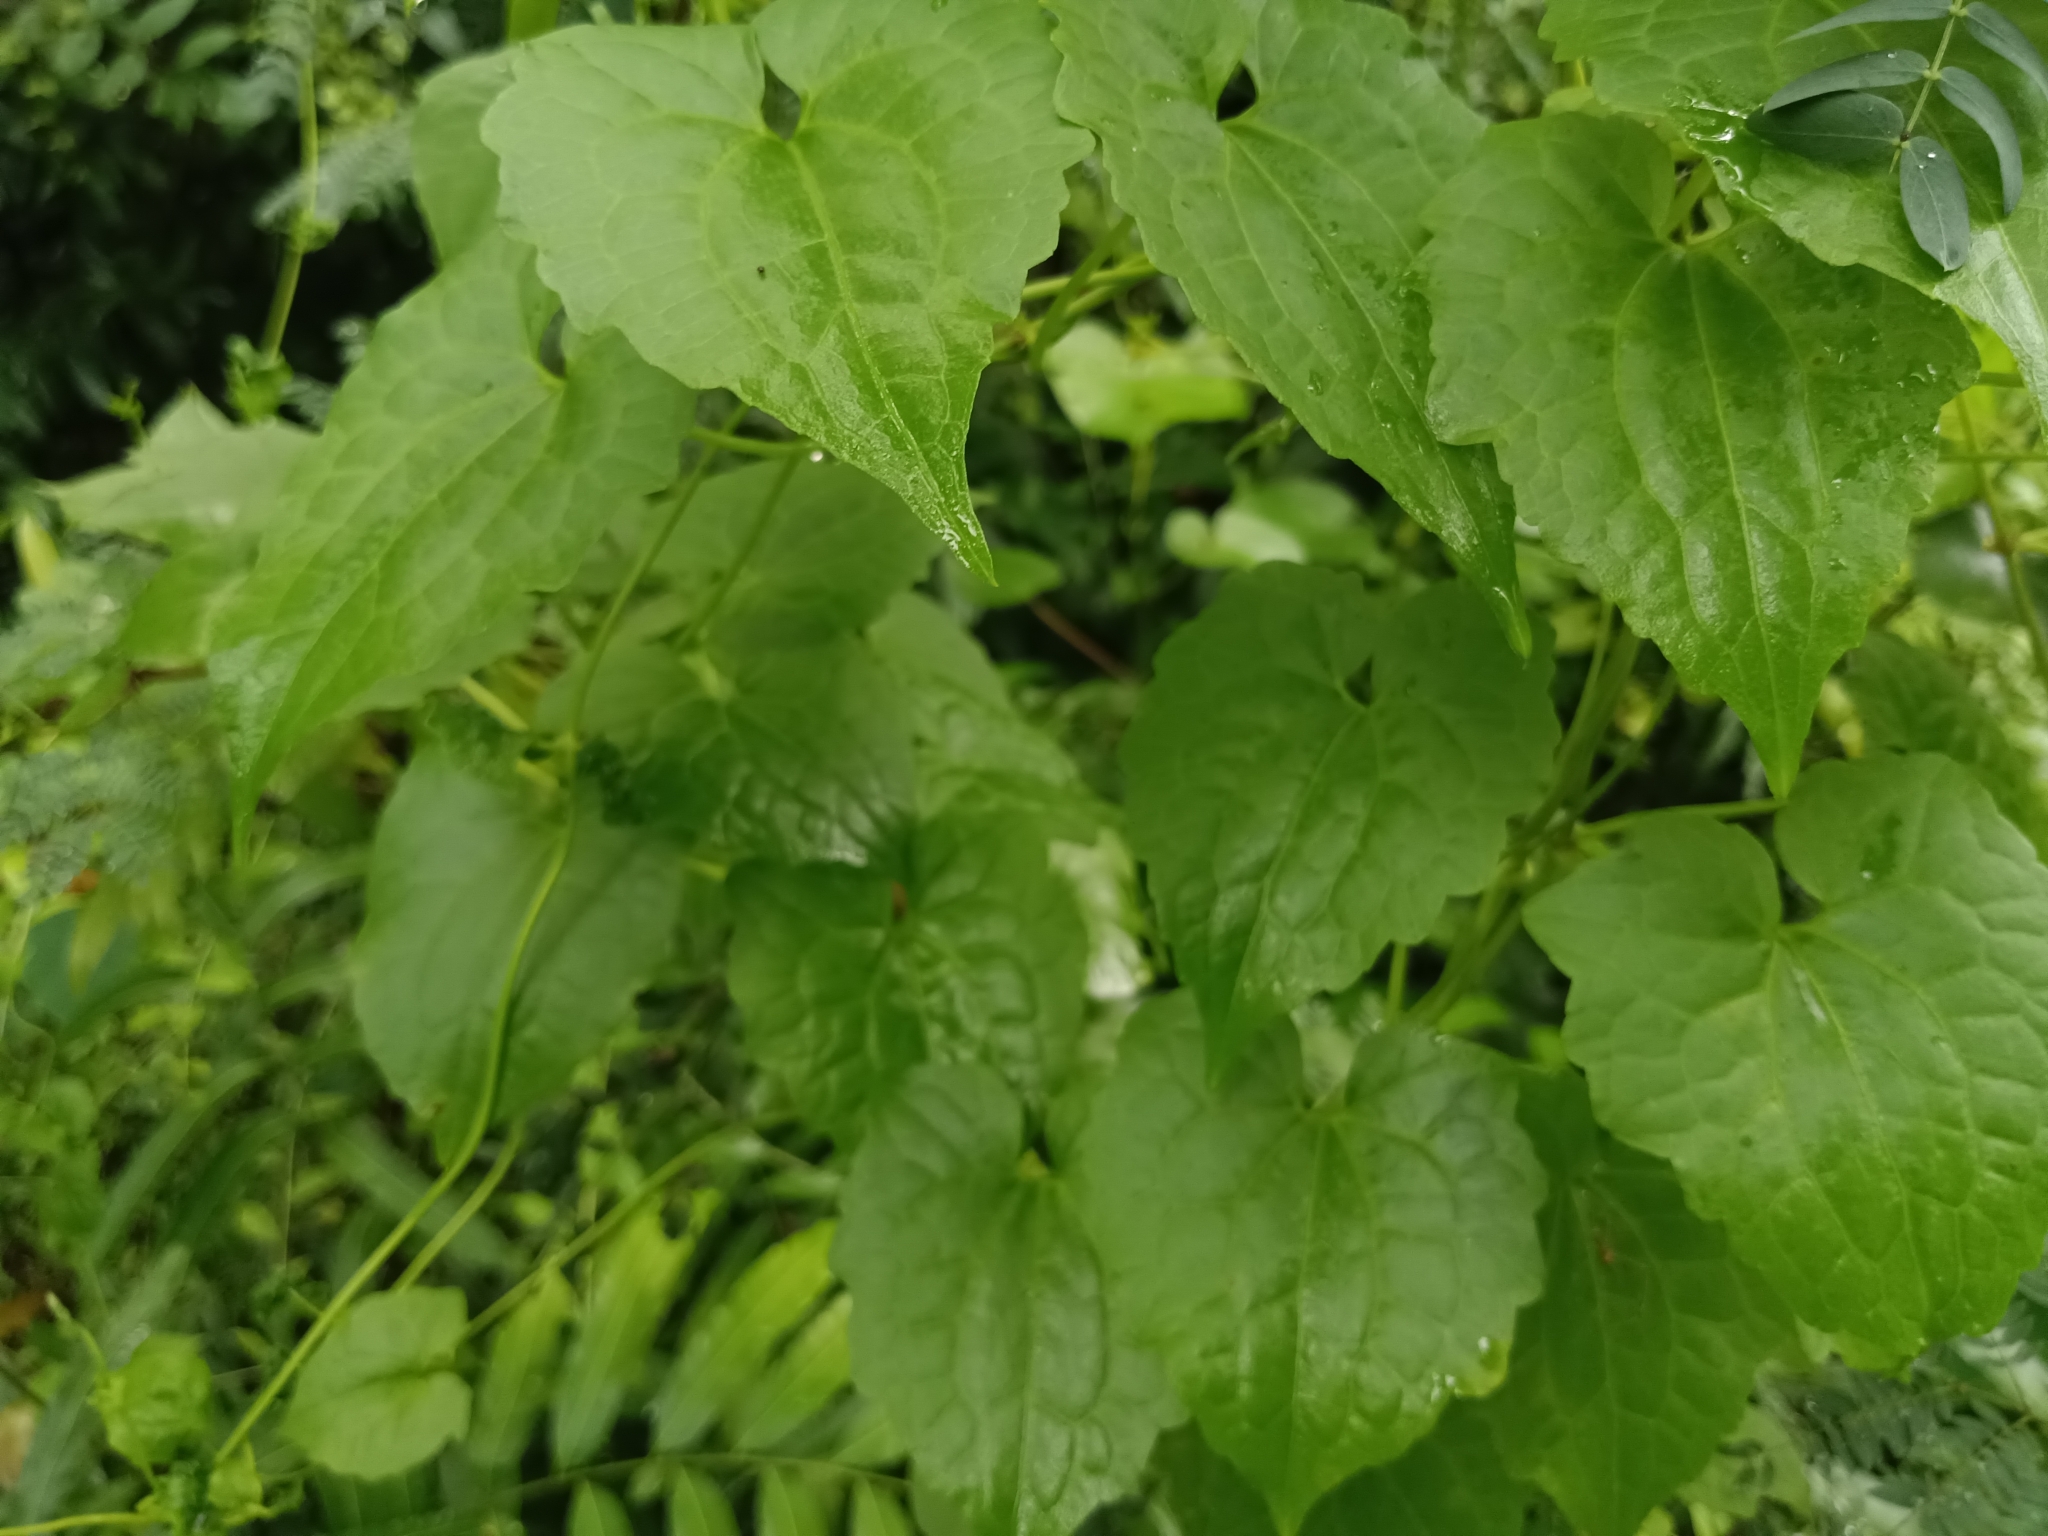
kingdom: Plantae
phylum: Tracheophyta
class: Magnoliopsida
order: Asterales
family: Asteraceae
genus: Mikania
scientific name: Mikania micrantha
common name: Mile-a-minute
